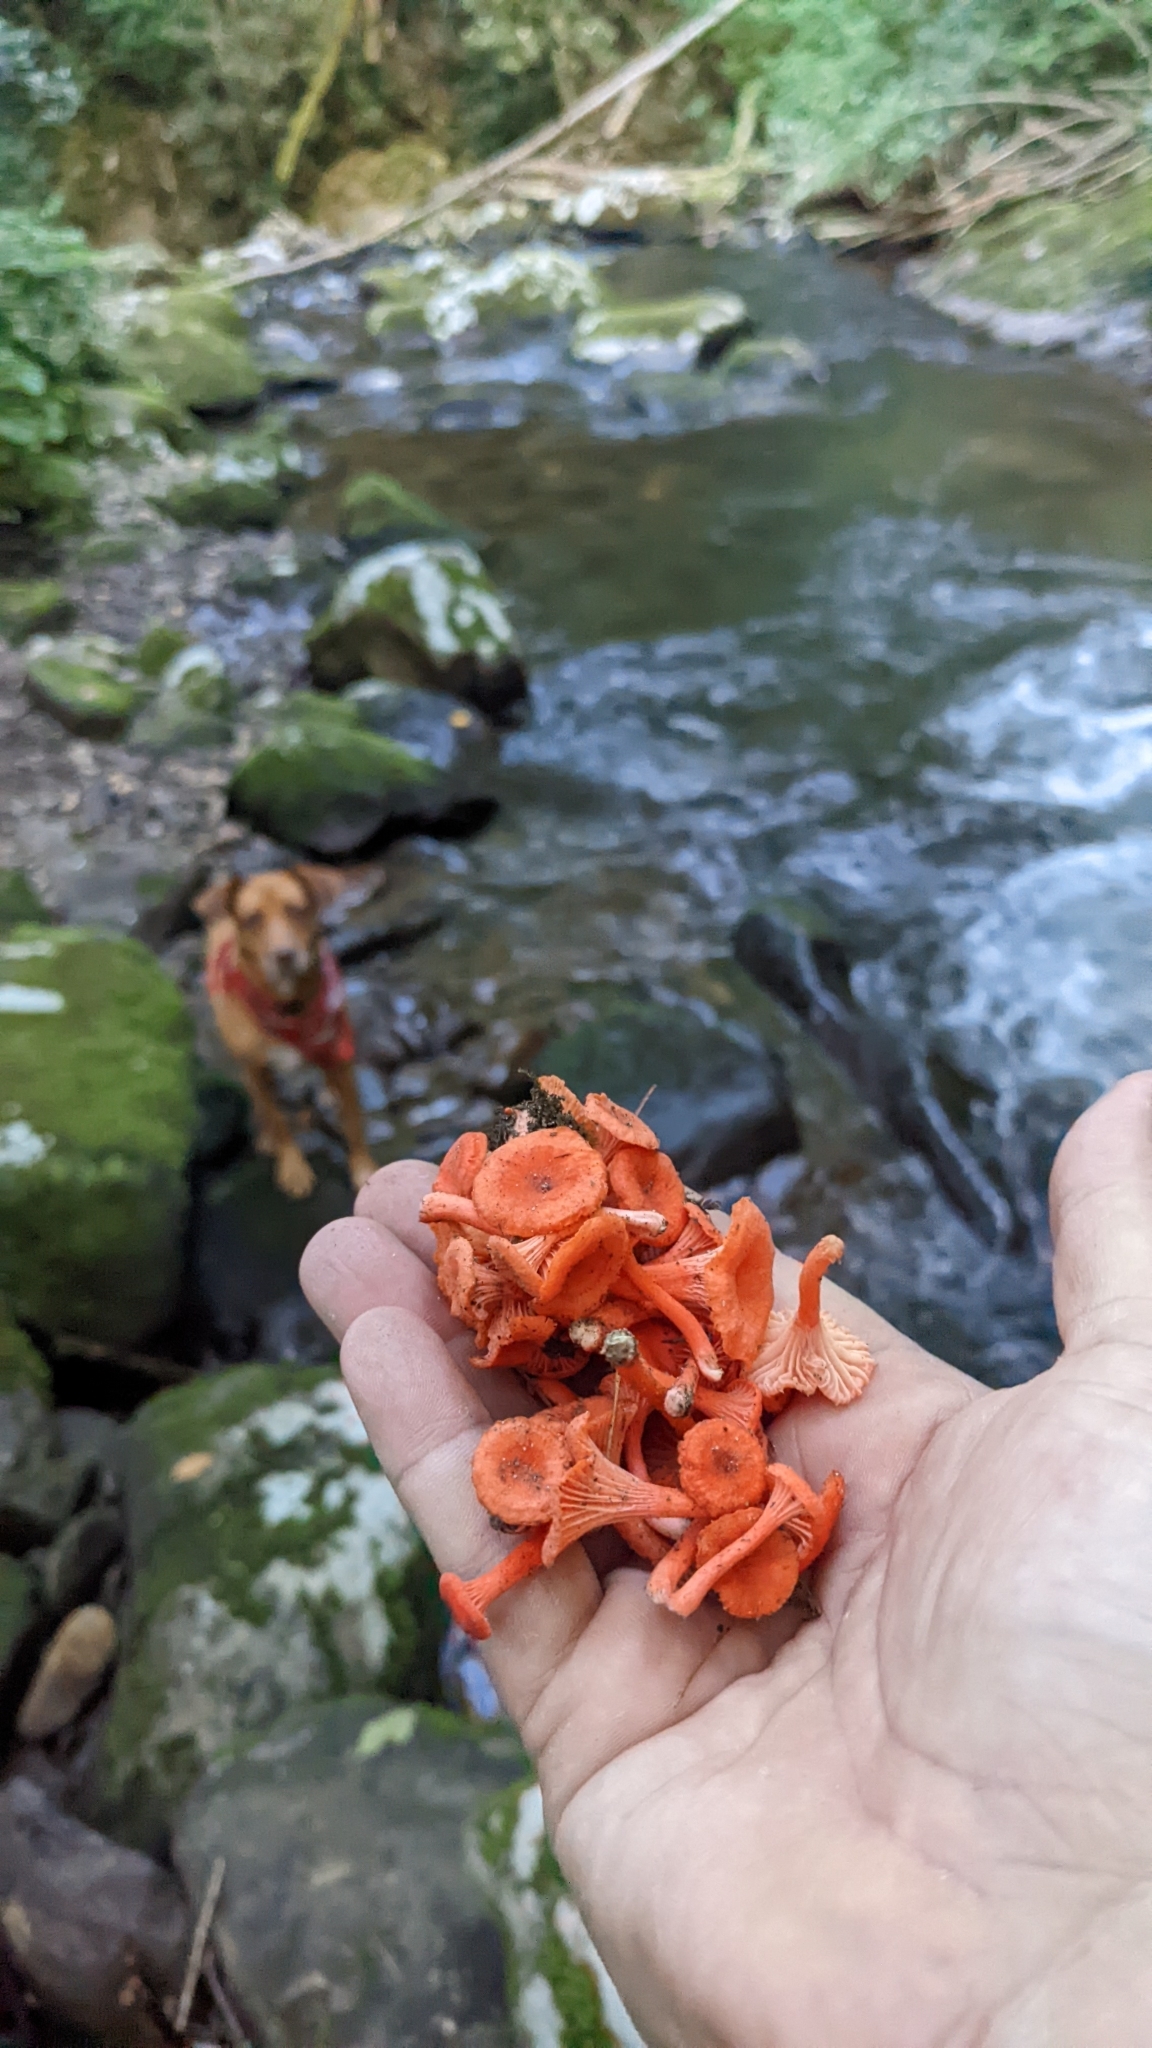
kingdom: Fungi
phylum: Basidiomycota
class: Agaricomycetes
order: Cantharellales
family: Hydnaceae
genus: Cantharellus
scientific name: Cantharellus cinnabarinus
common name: Cinnabar chanterelle
